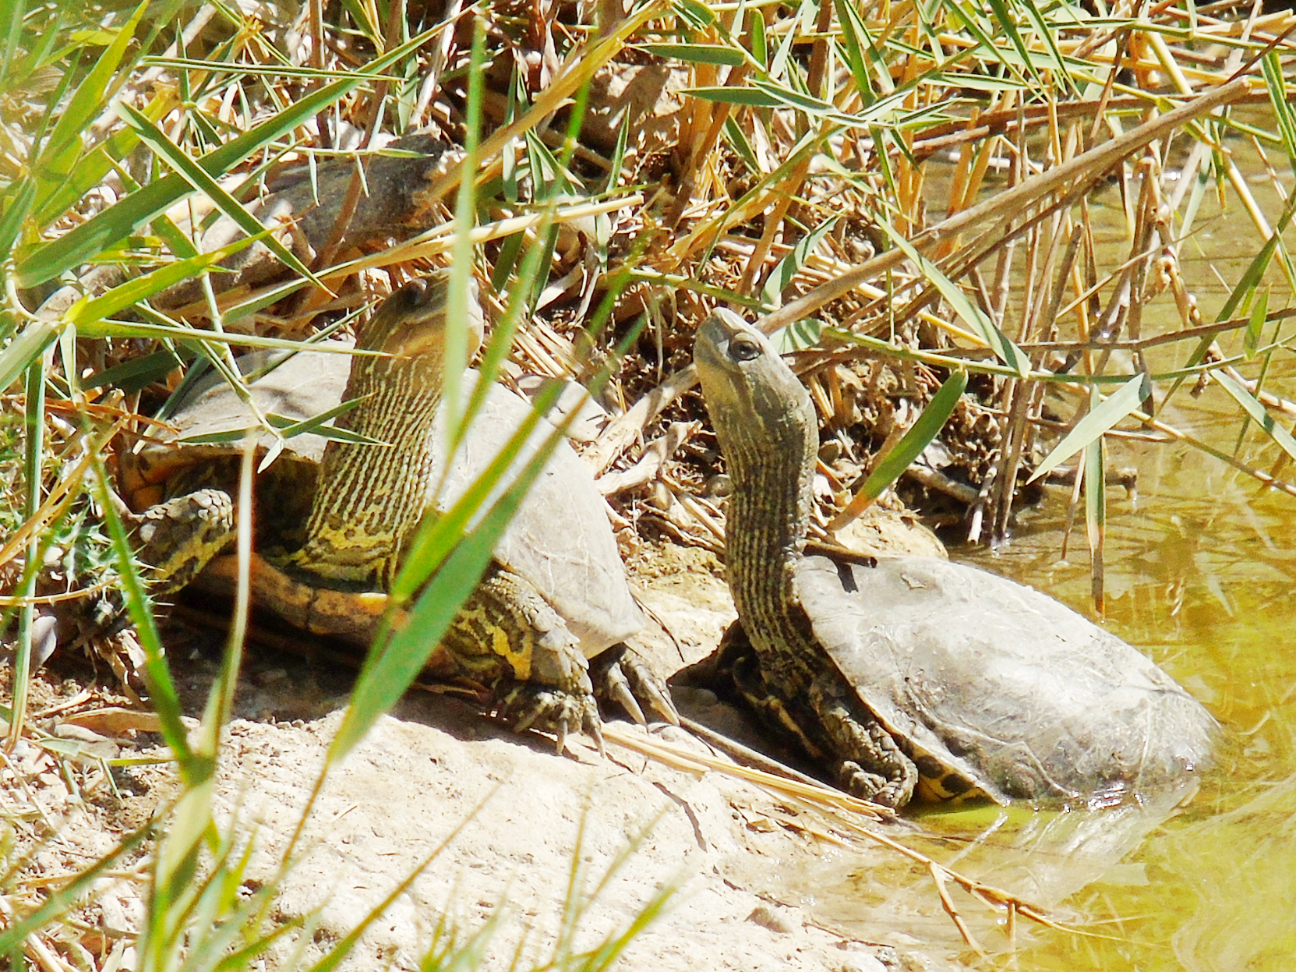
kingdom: Animalia
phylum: Chordata
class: Testudines
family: Geoemydidae
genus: Mauremys
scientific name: Mauremys caspica
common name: Caspian turtle
